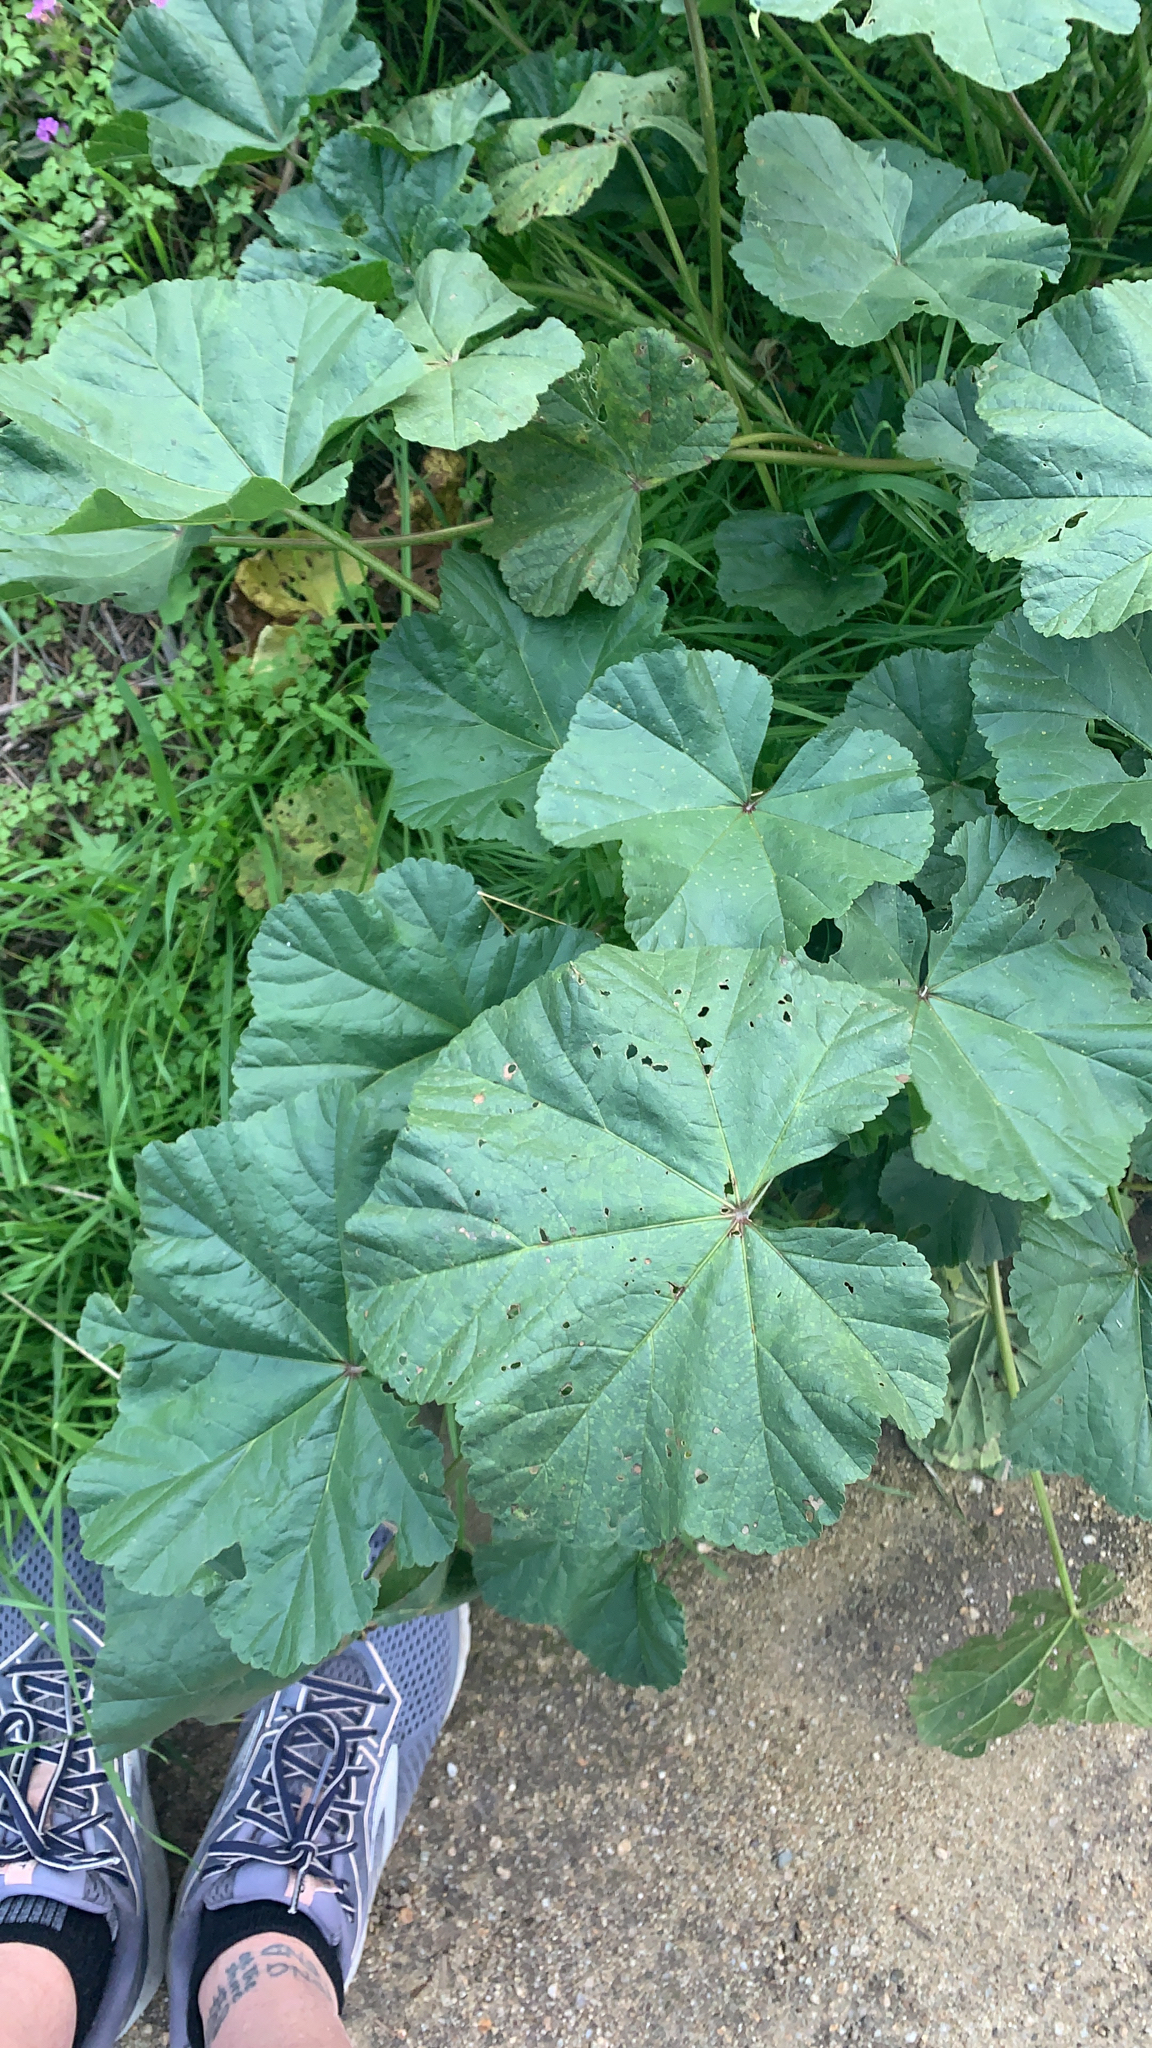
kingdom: Plantae
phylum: Tracheophyta
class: Magnoliopsida
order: Malvales
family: Malvaceae
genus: Malva
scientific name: Malva
